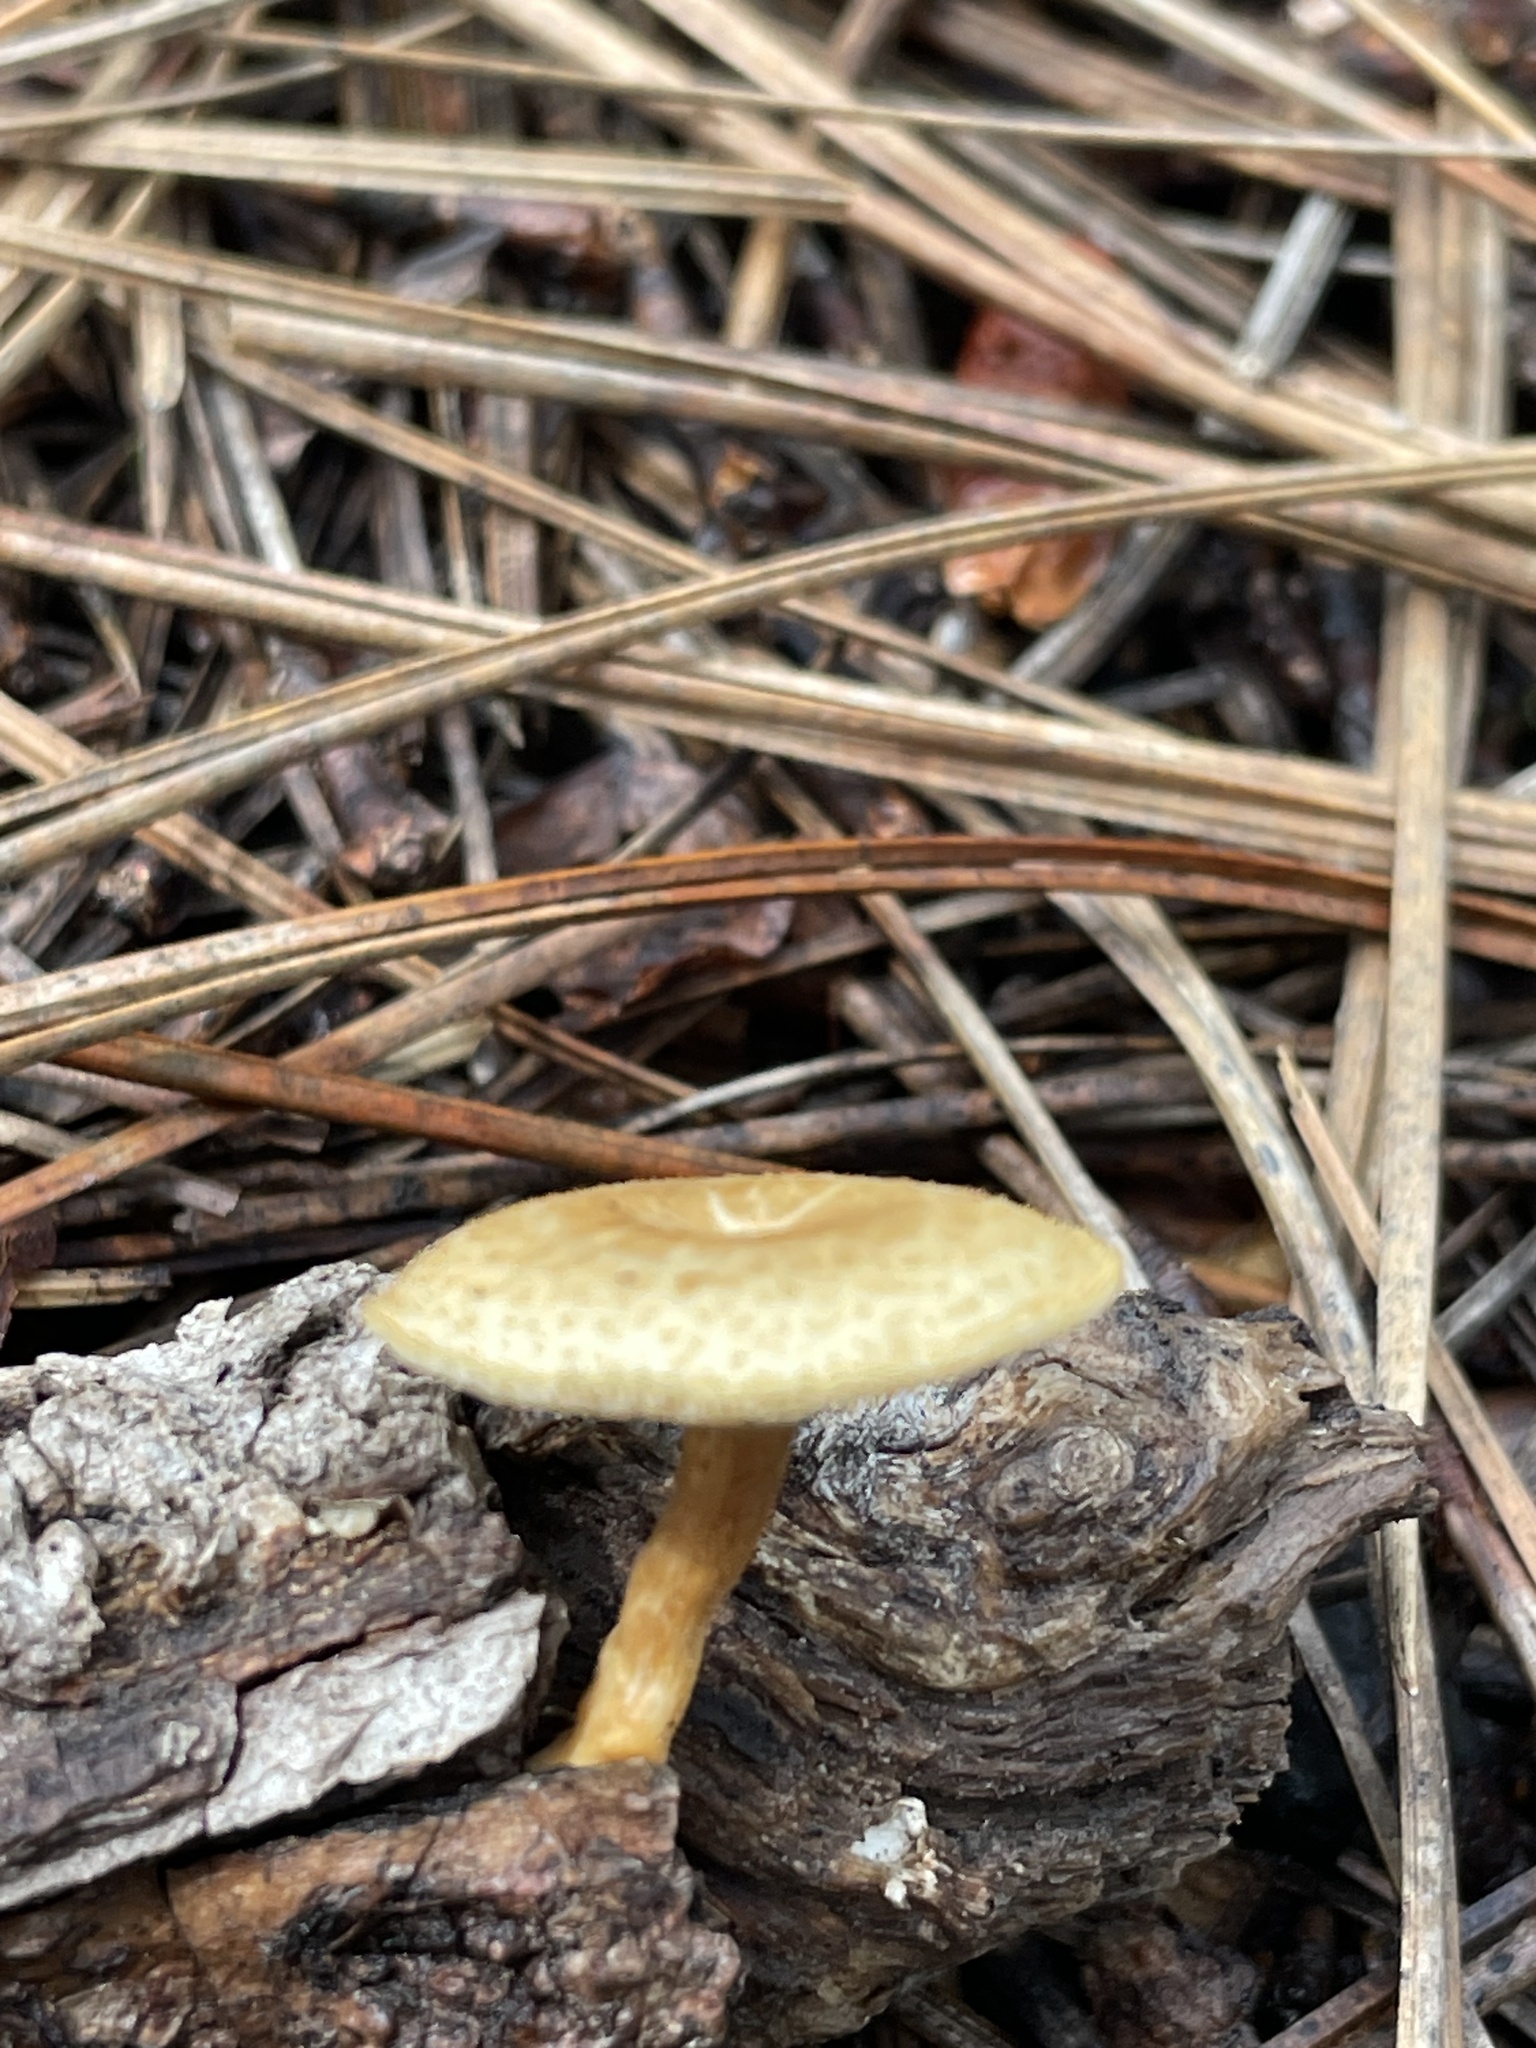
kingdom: Fungi
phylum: Basidiomycota
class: Agaricomycetes
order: Polyporales
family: Polyporaceae
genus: Lentinus
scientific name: Lentinus arcularius
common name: Spring polypore
